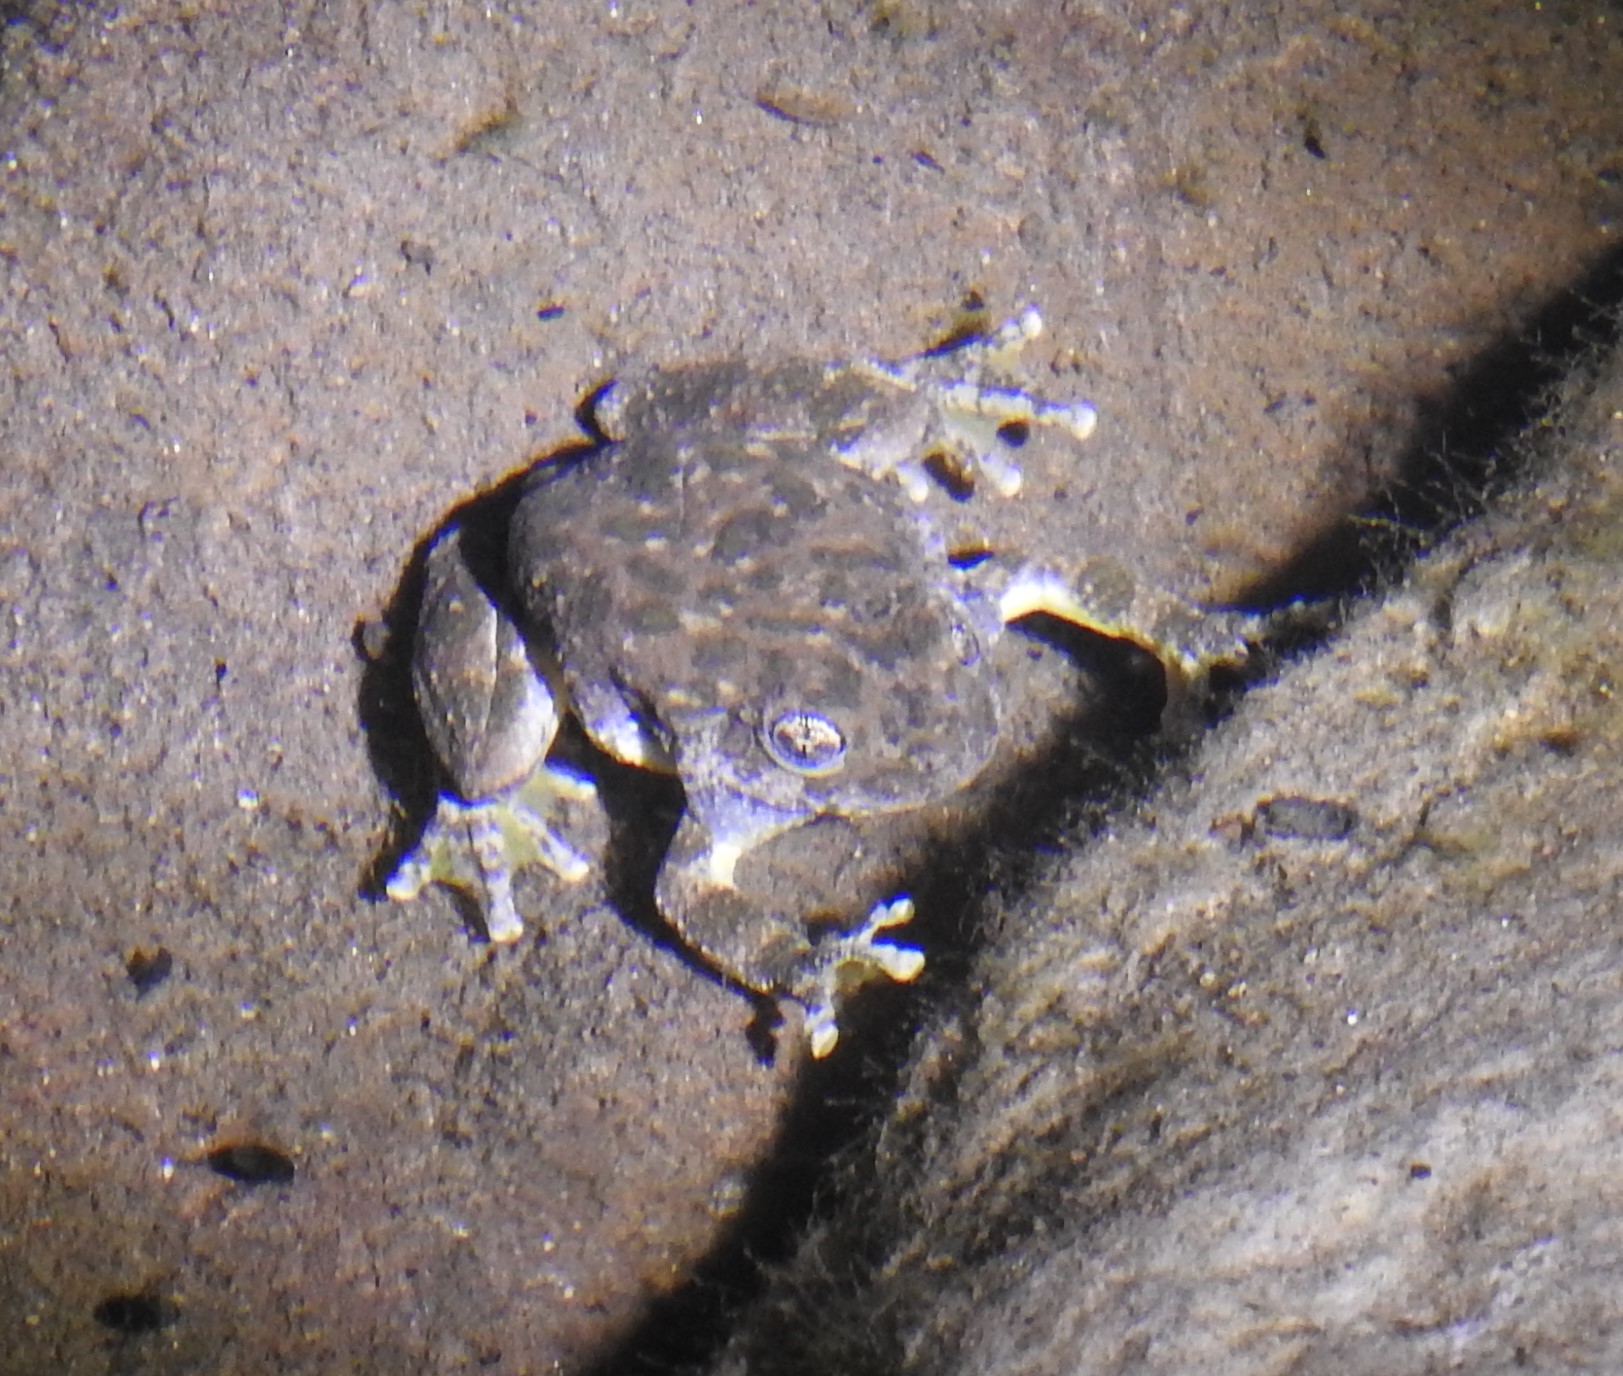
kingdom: Animalia
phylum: Chordata
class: Amphibia
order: Anura
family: Hylidae
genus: Dryophytes
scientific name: Dryophytes arenicolor
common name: Canyon treefrog
